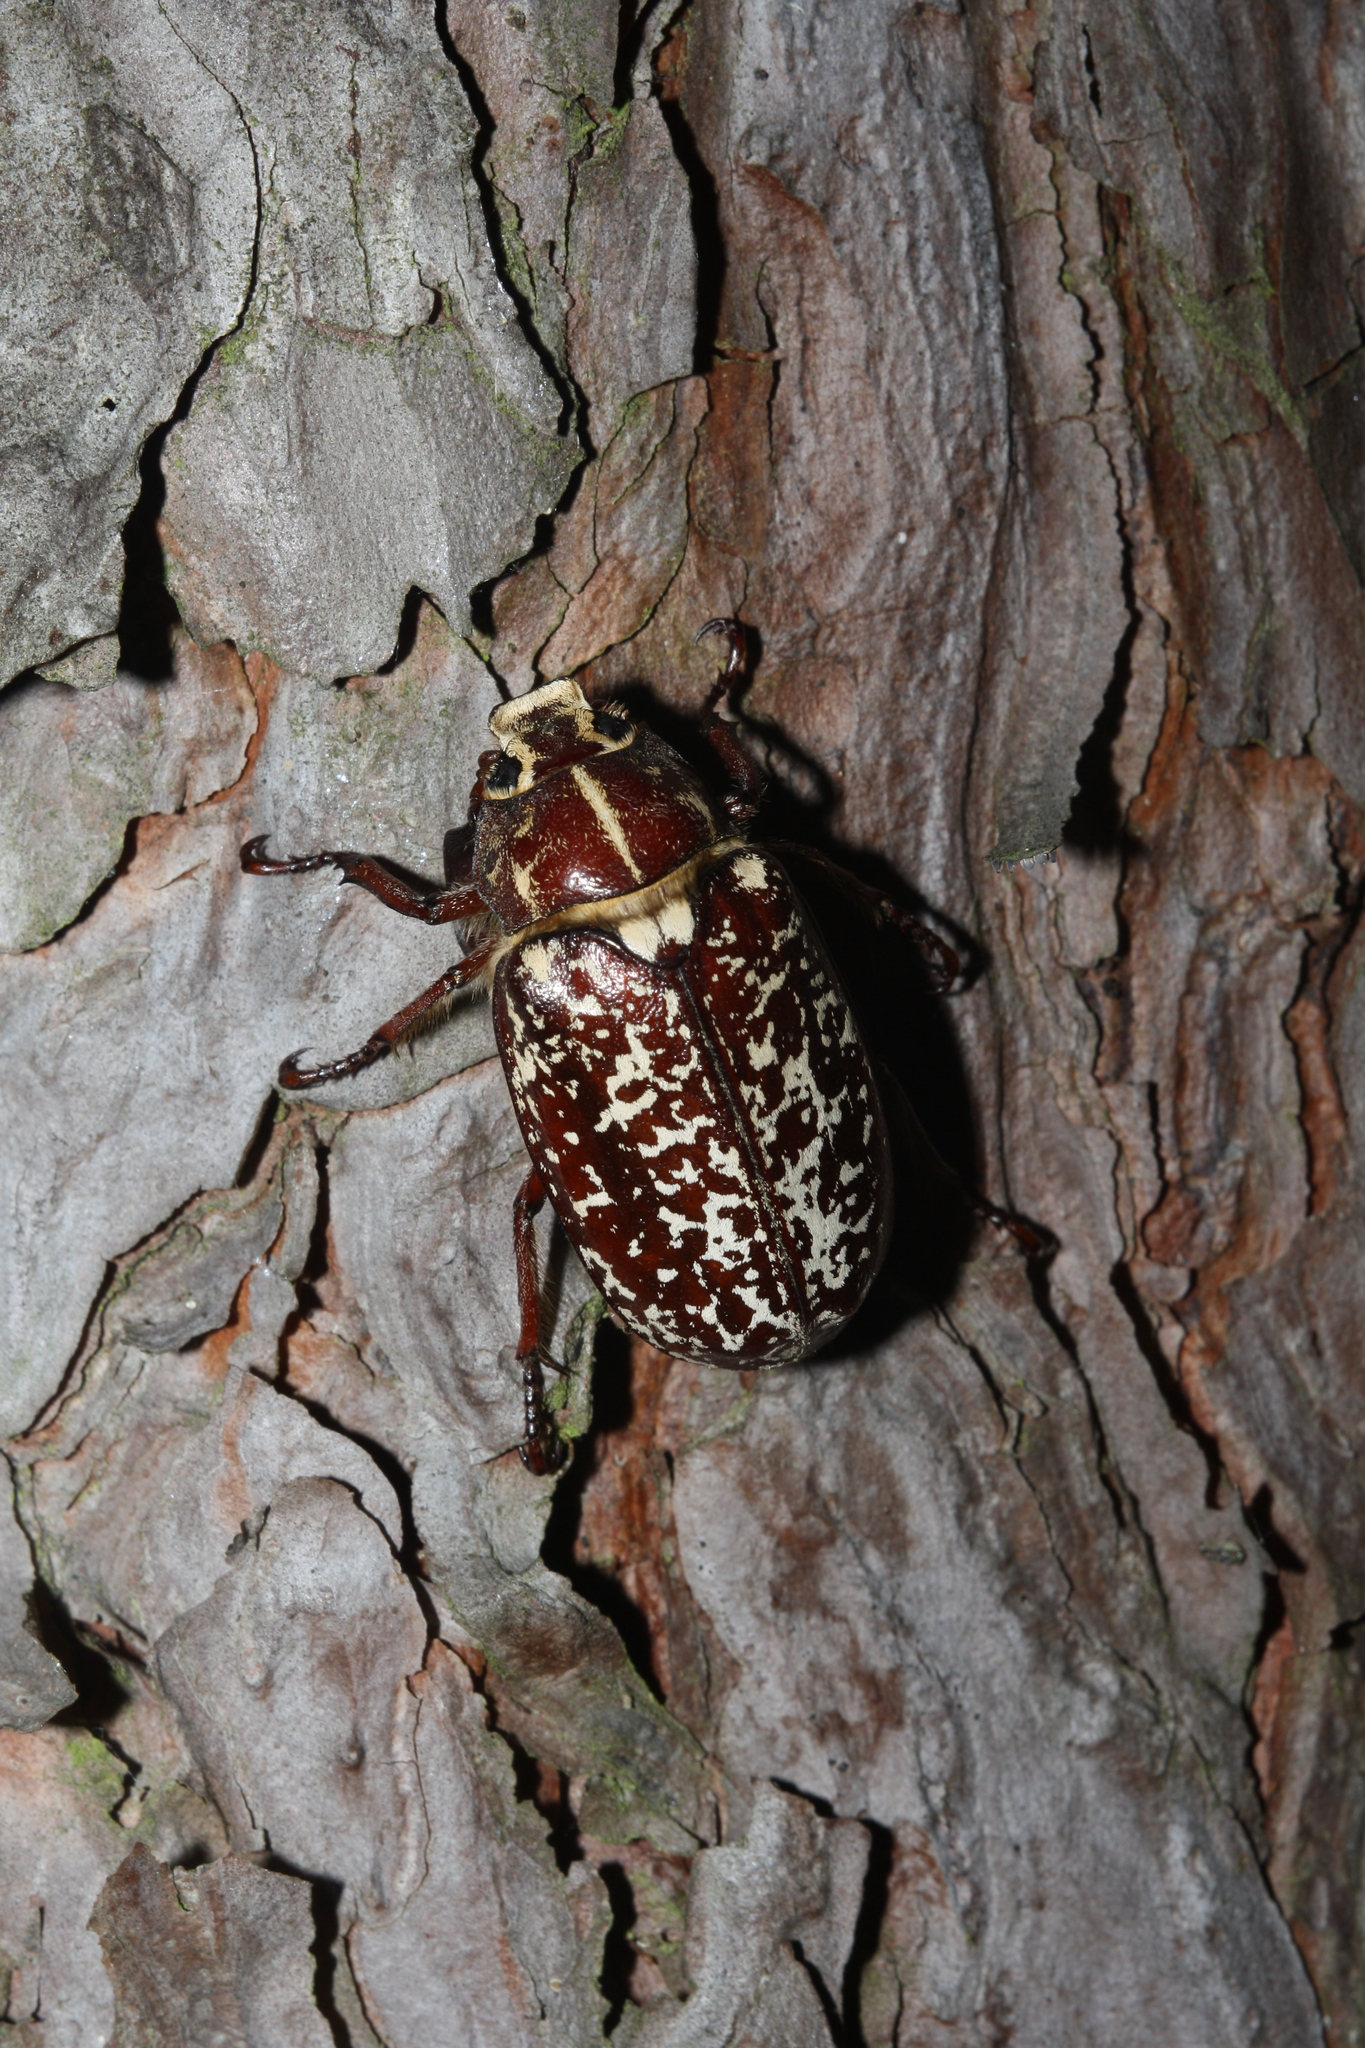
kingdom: Animalia
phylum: Arthropoda
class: Insecta
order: Coleoptera
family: Scarabaeidae
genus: Polyphylla
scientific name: Polyphylla fullo
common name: Pine chafer
